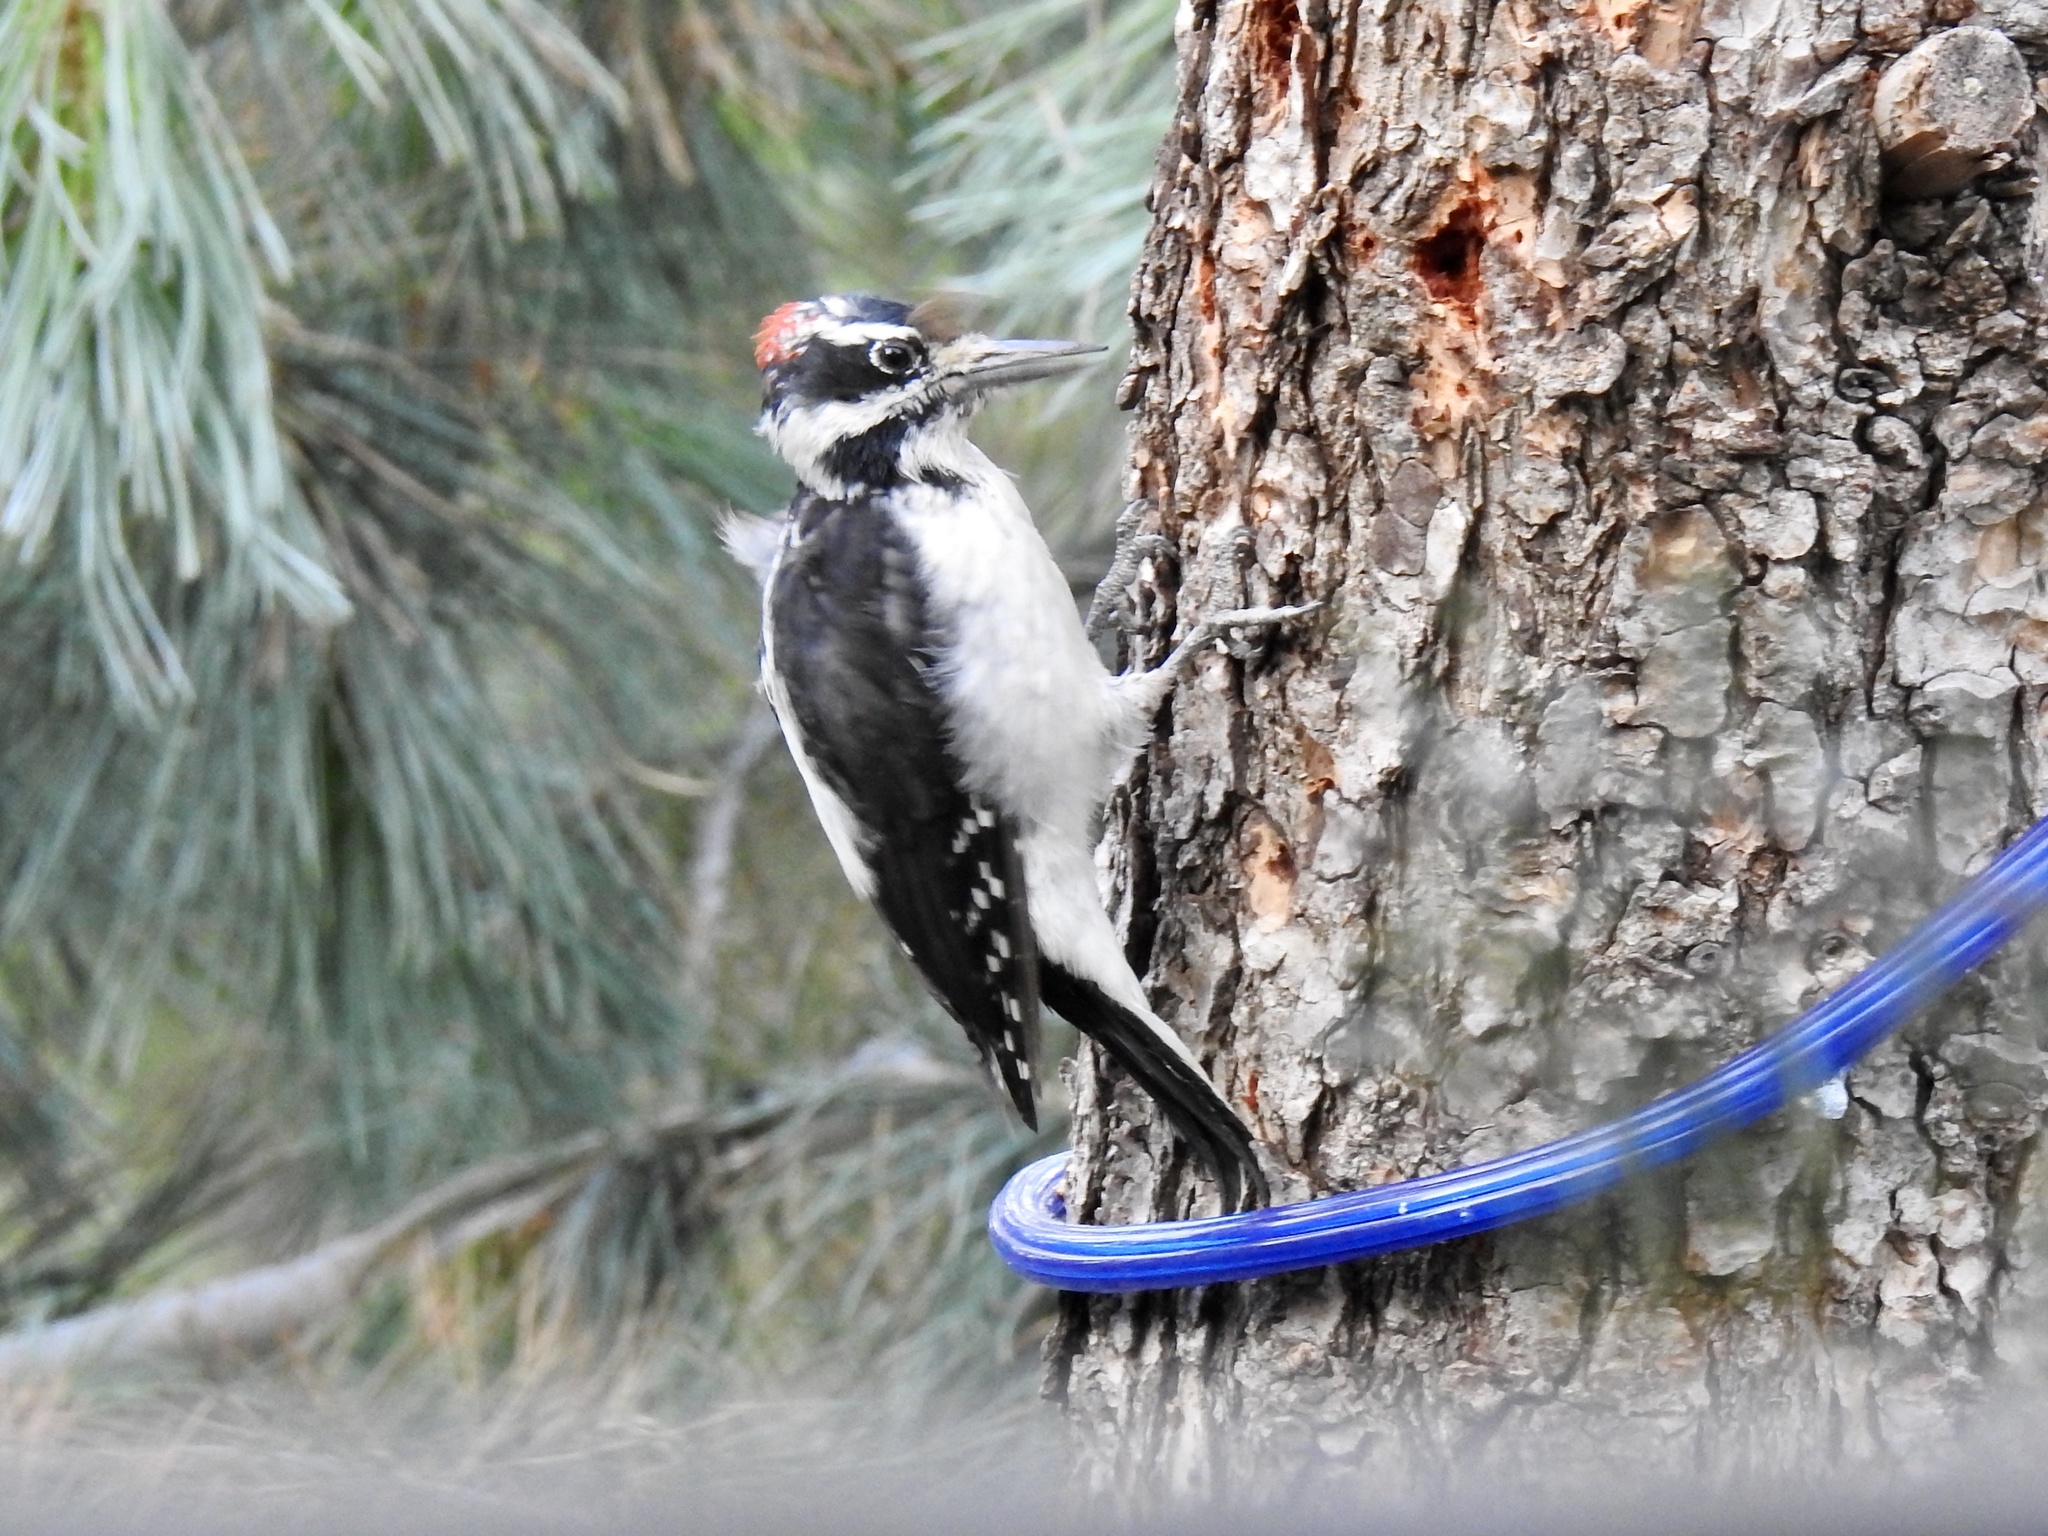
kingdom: Animalia
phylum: Chordata
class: Aves
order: Piciformes
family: Picidae
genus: Leuconotopicus
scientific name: Leuconotopicus villosus
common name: Hairy woodpecker
